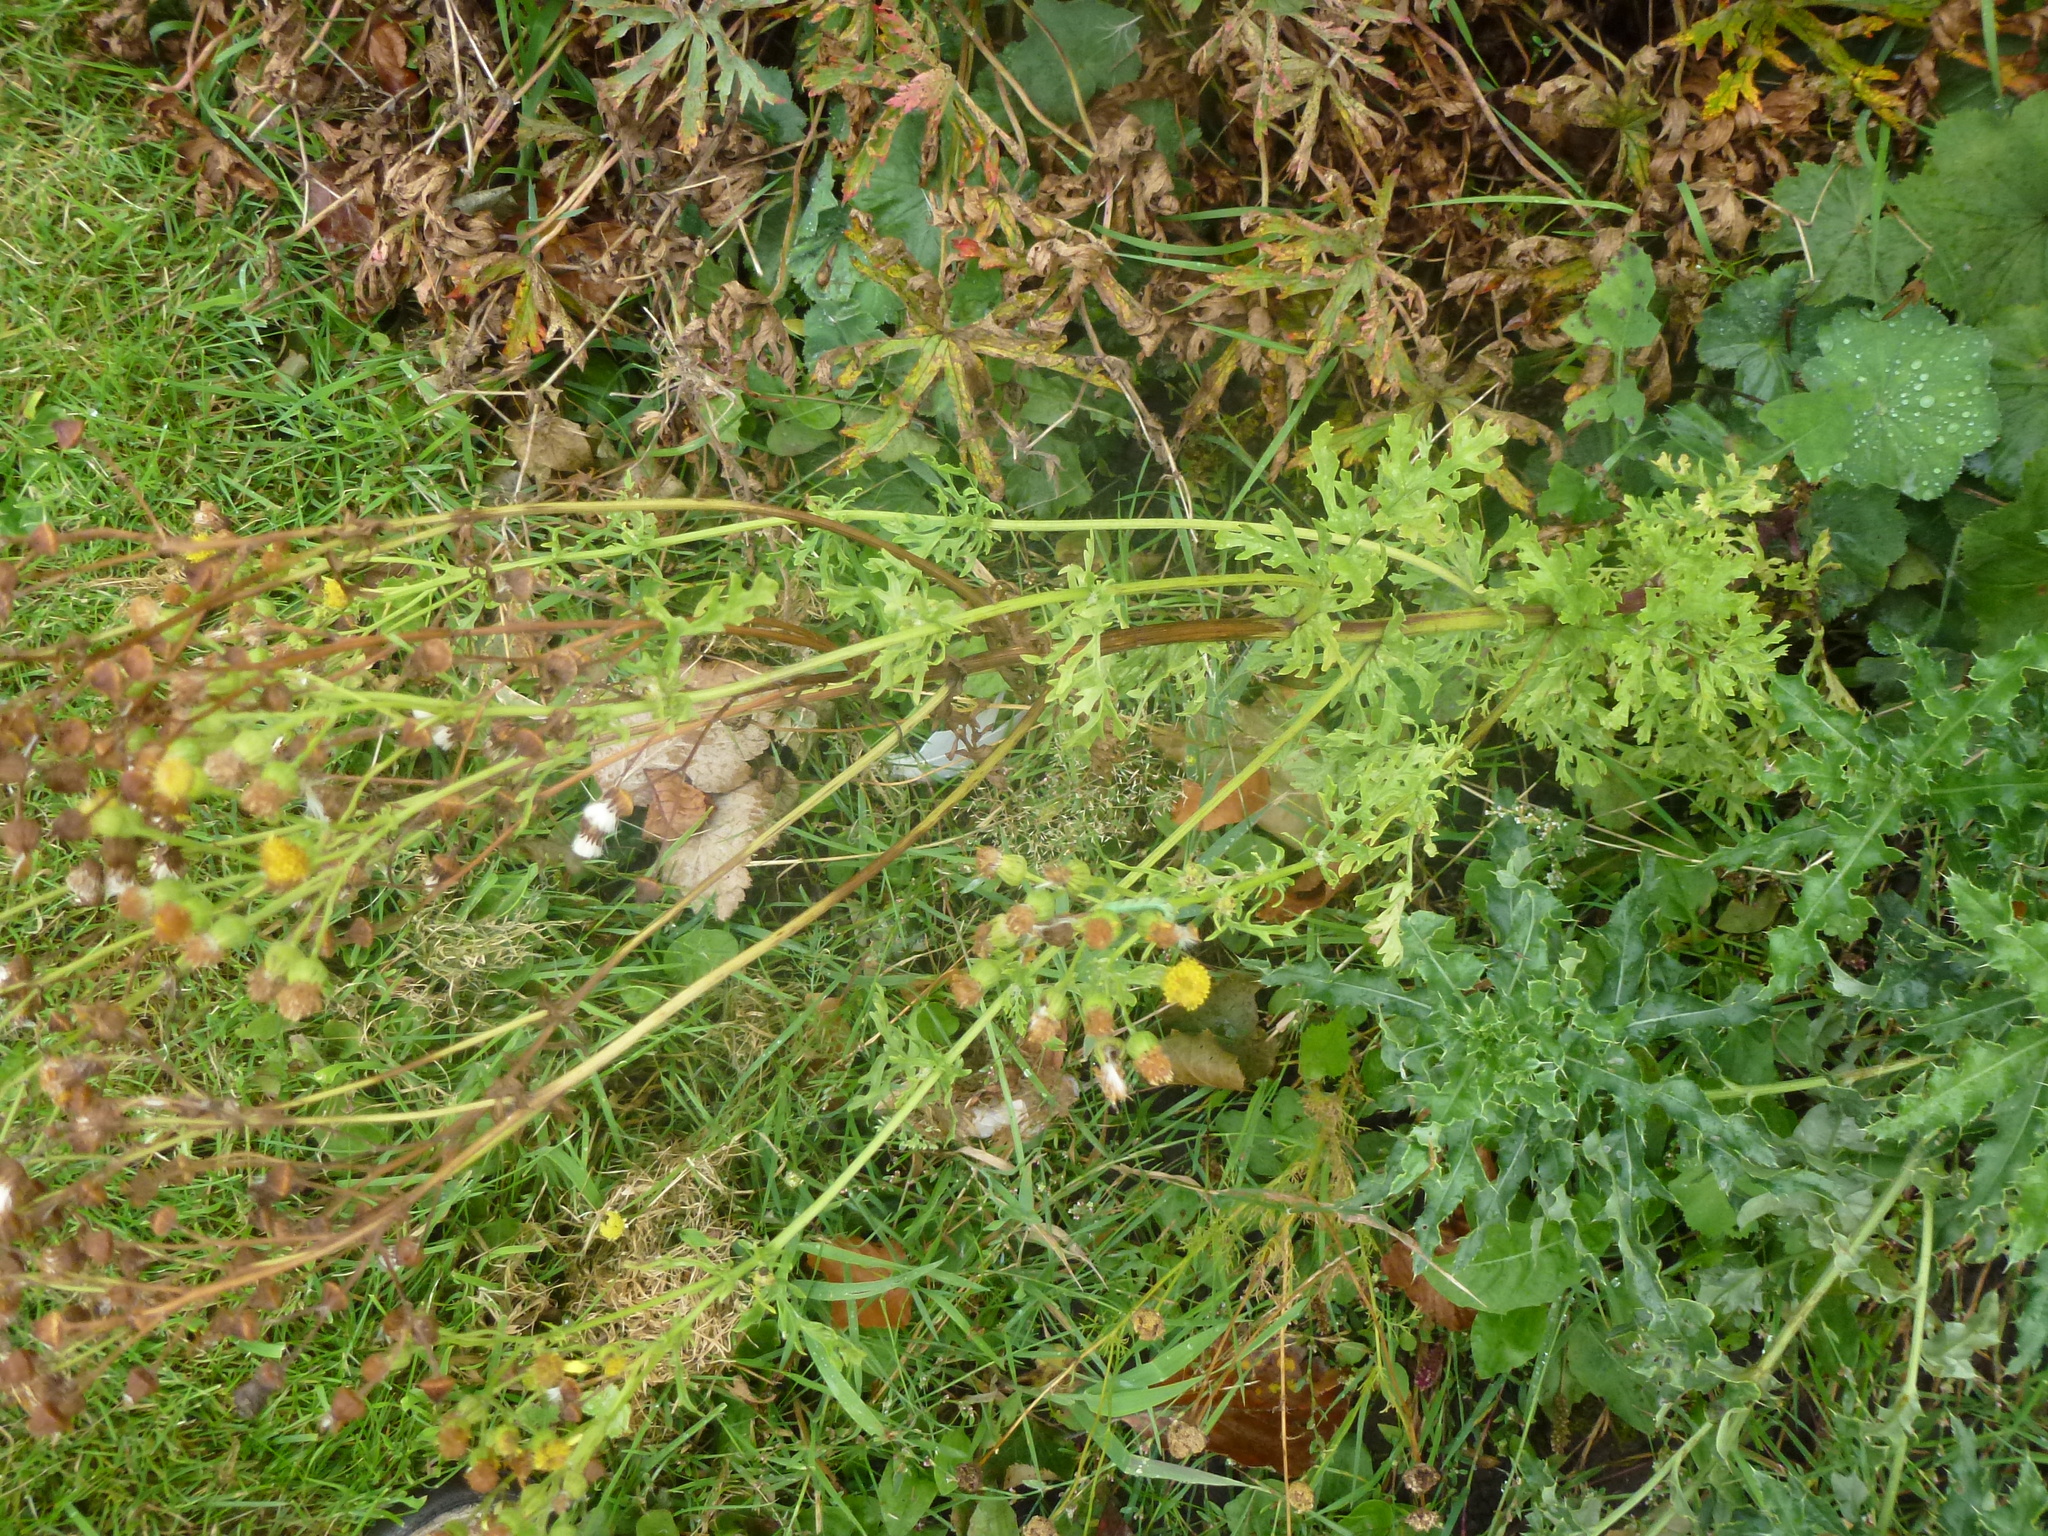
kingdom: Plantae
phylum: Tracheophyta
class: Magnoliopsida
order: Asterales
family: Asteraceae
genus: Jacobaea
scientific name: Jacobaea vulgaris
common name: Stinking willie
